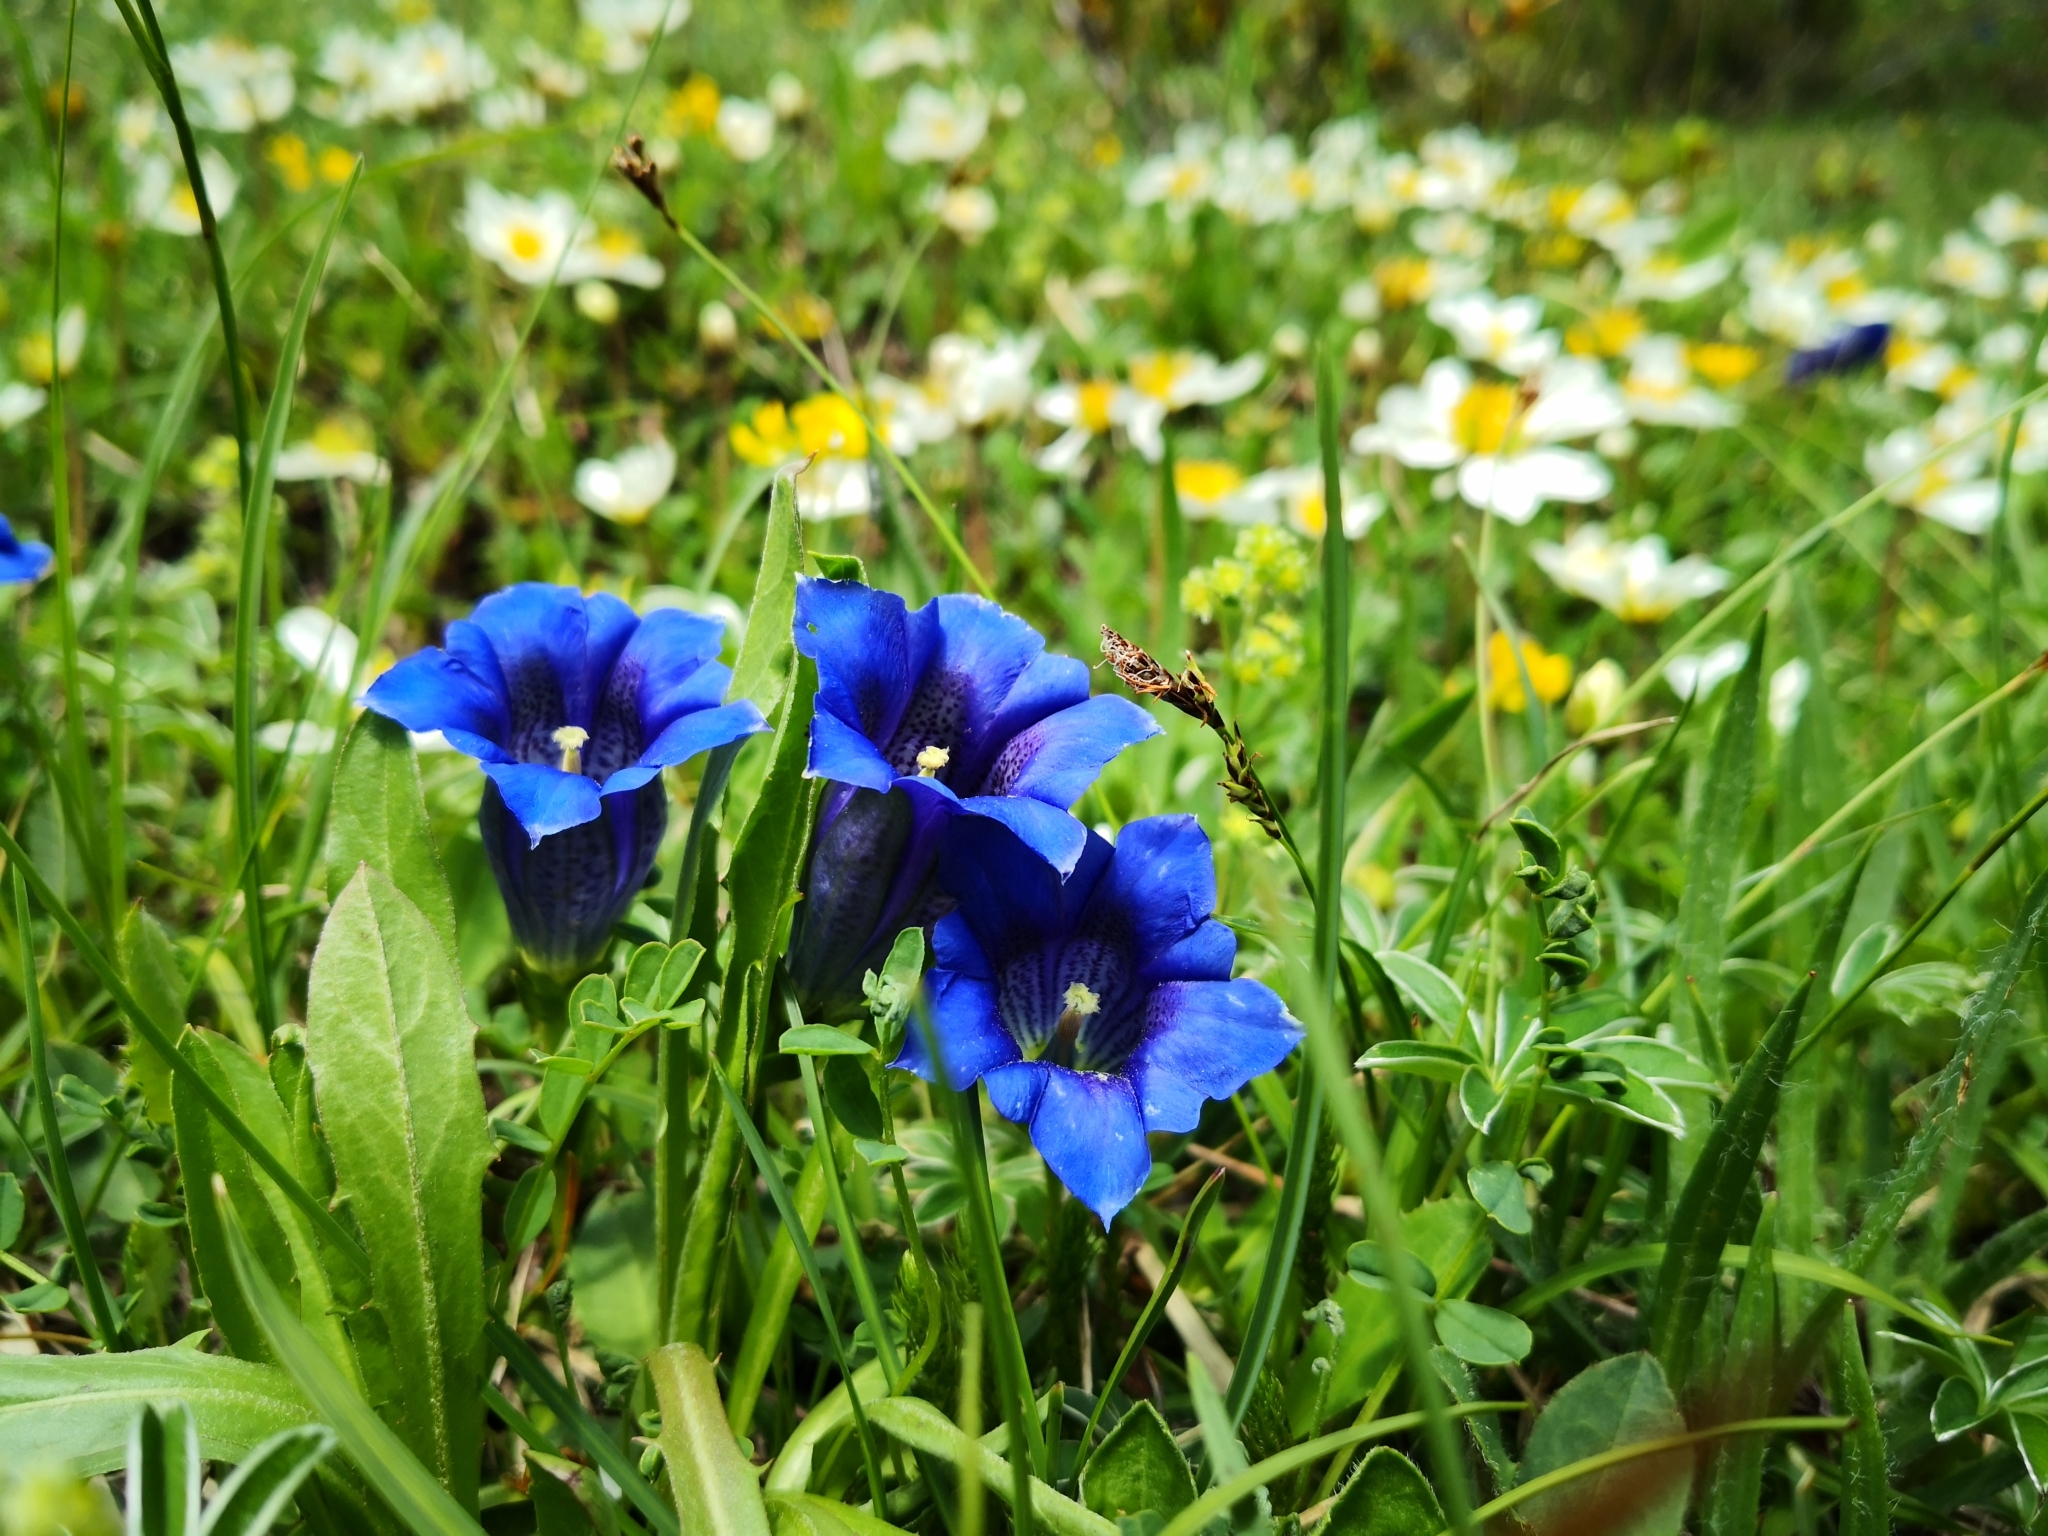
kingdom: Plantae
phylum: Tracheophyta
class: Magnoliopsida
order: Gentianales
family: Gentianaceae
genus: Gentiana
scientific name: Gentiana clusii
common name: Trumpet gentian
